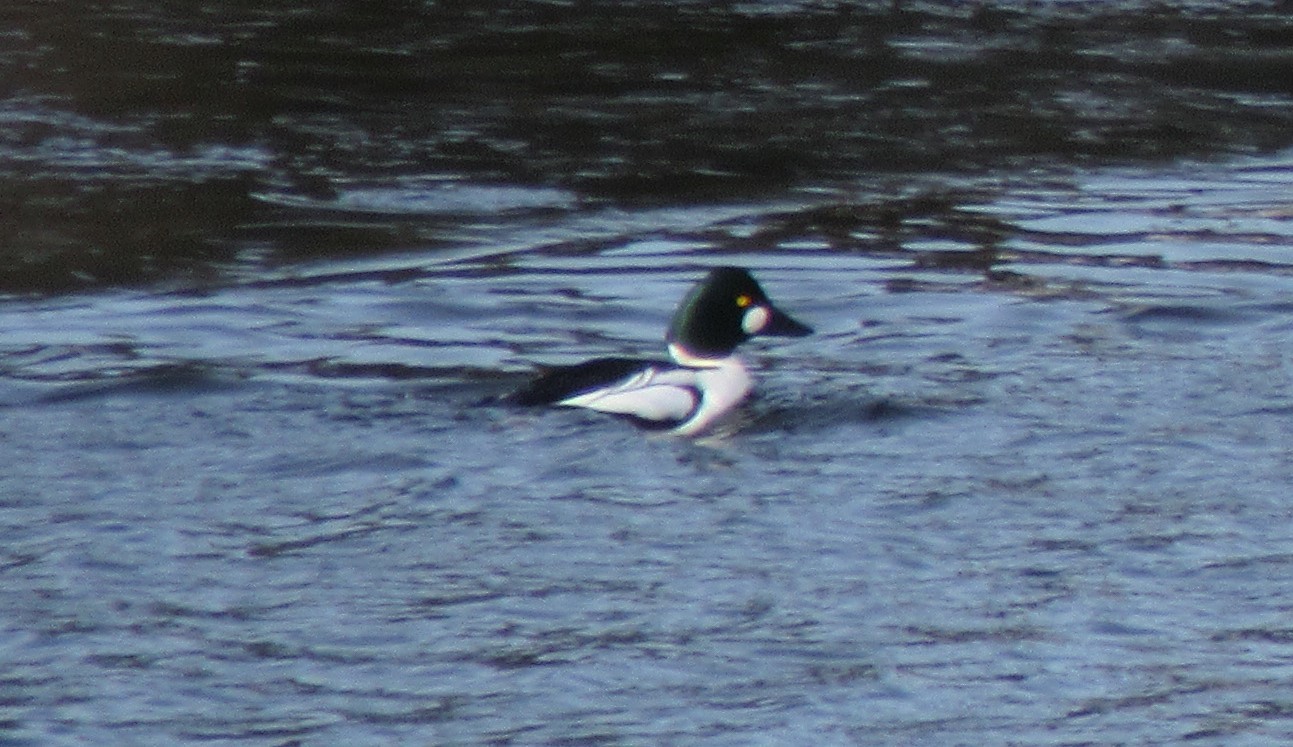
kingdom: Animalia
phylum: Chordata
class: Aves
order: Anseriformes
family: Anatidae
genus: Bucephala
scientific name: Bucephala clangula
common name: Common goldeneye
